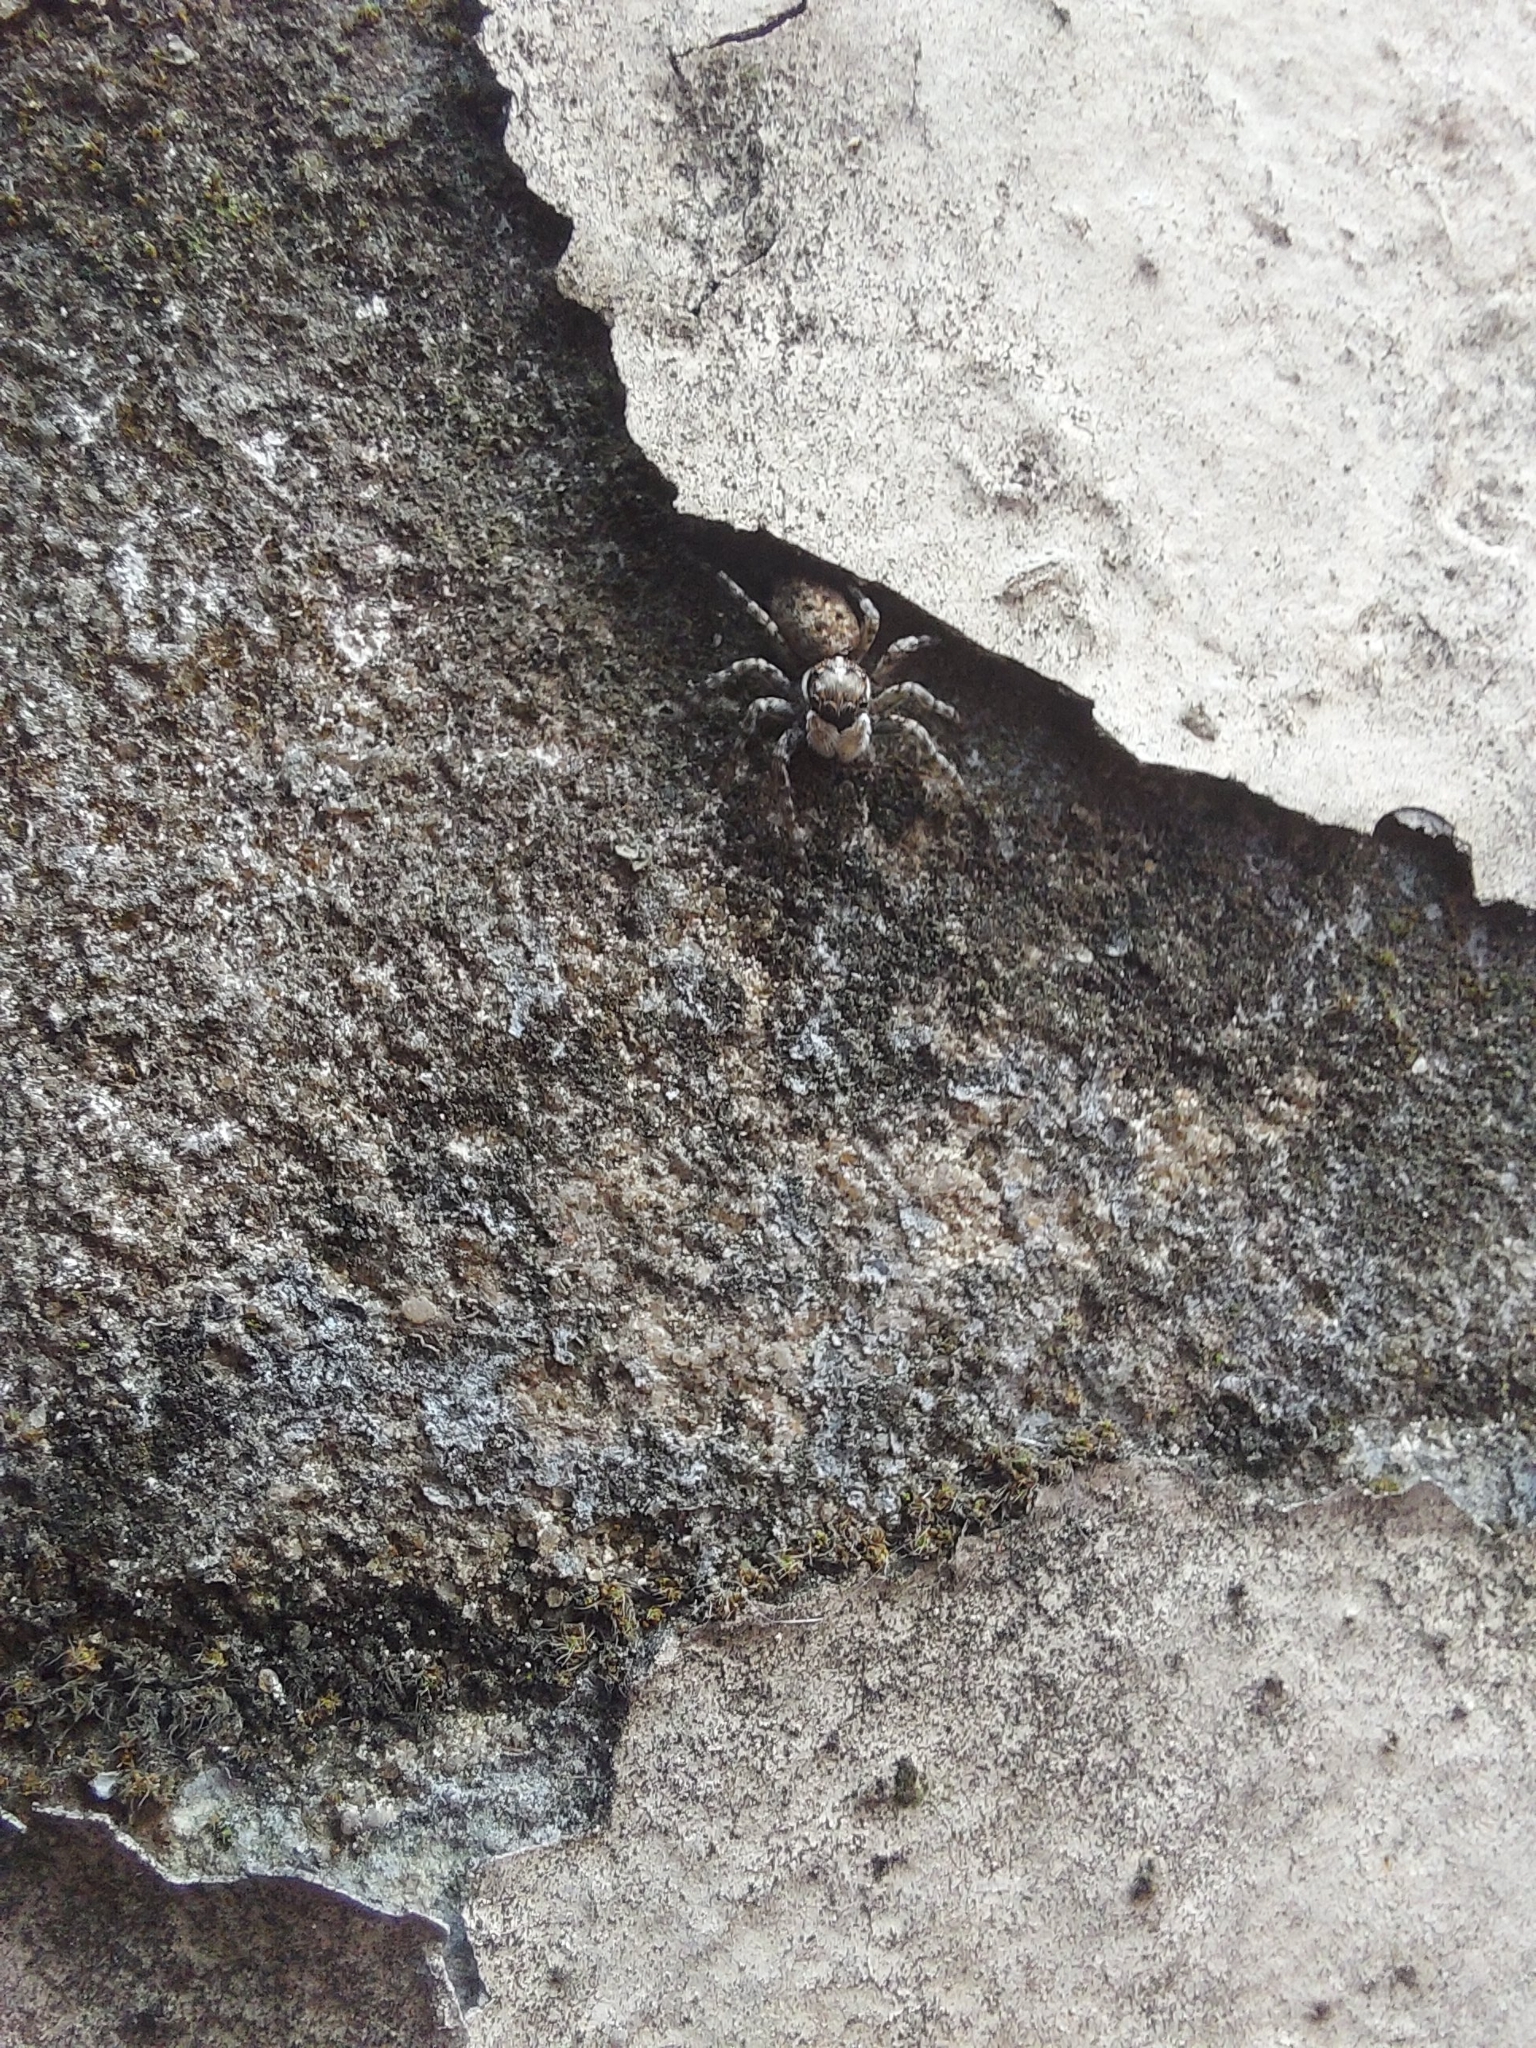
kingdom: Animalia
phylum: Arthropoda
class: Arachnida
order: Araneae
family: Salticidae
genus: Menemerus
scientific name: Menemerus semilimbatus
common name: Jumping spider
